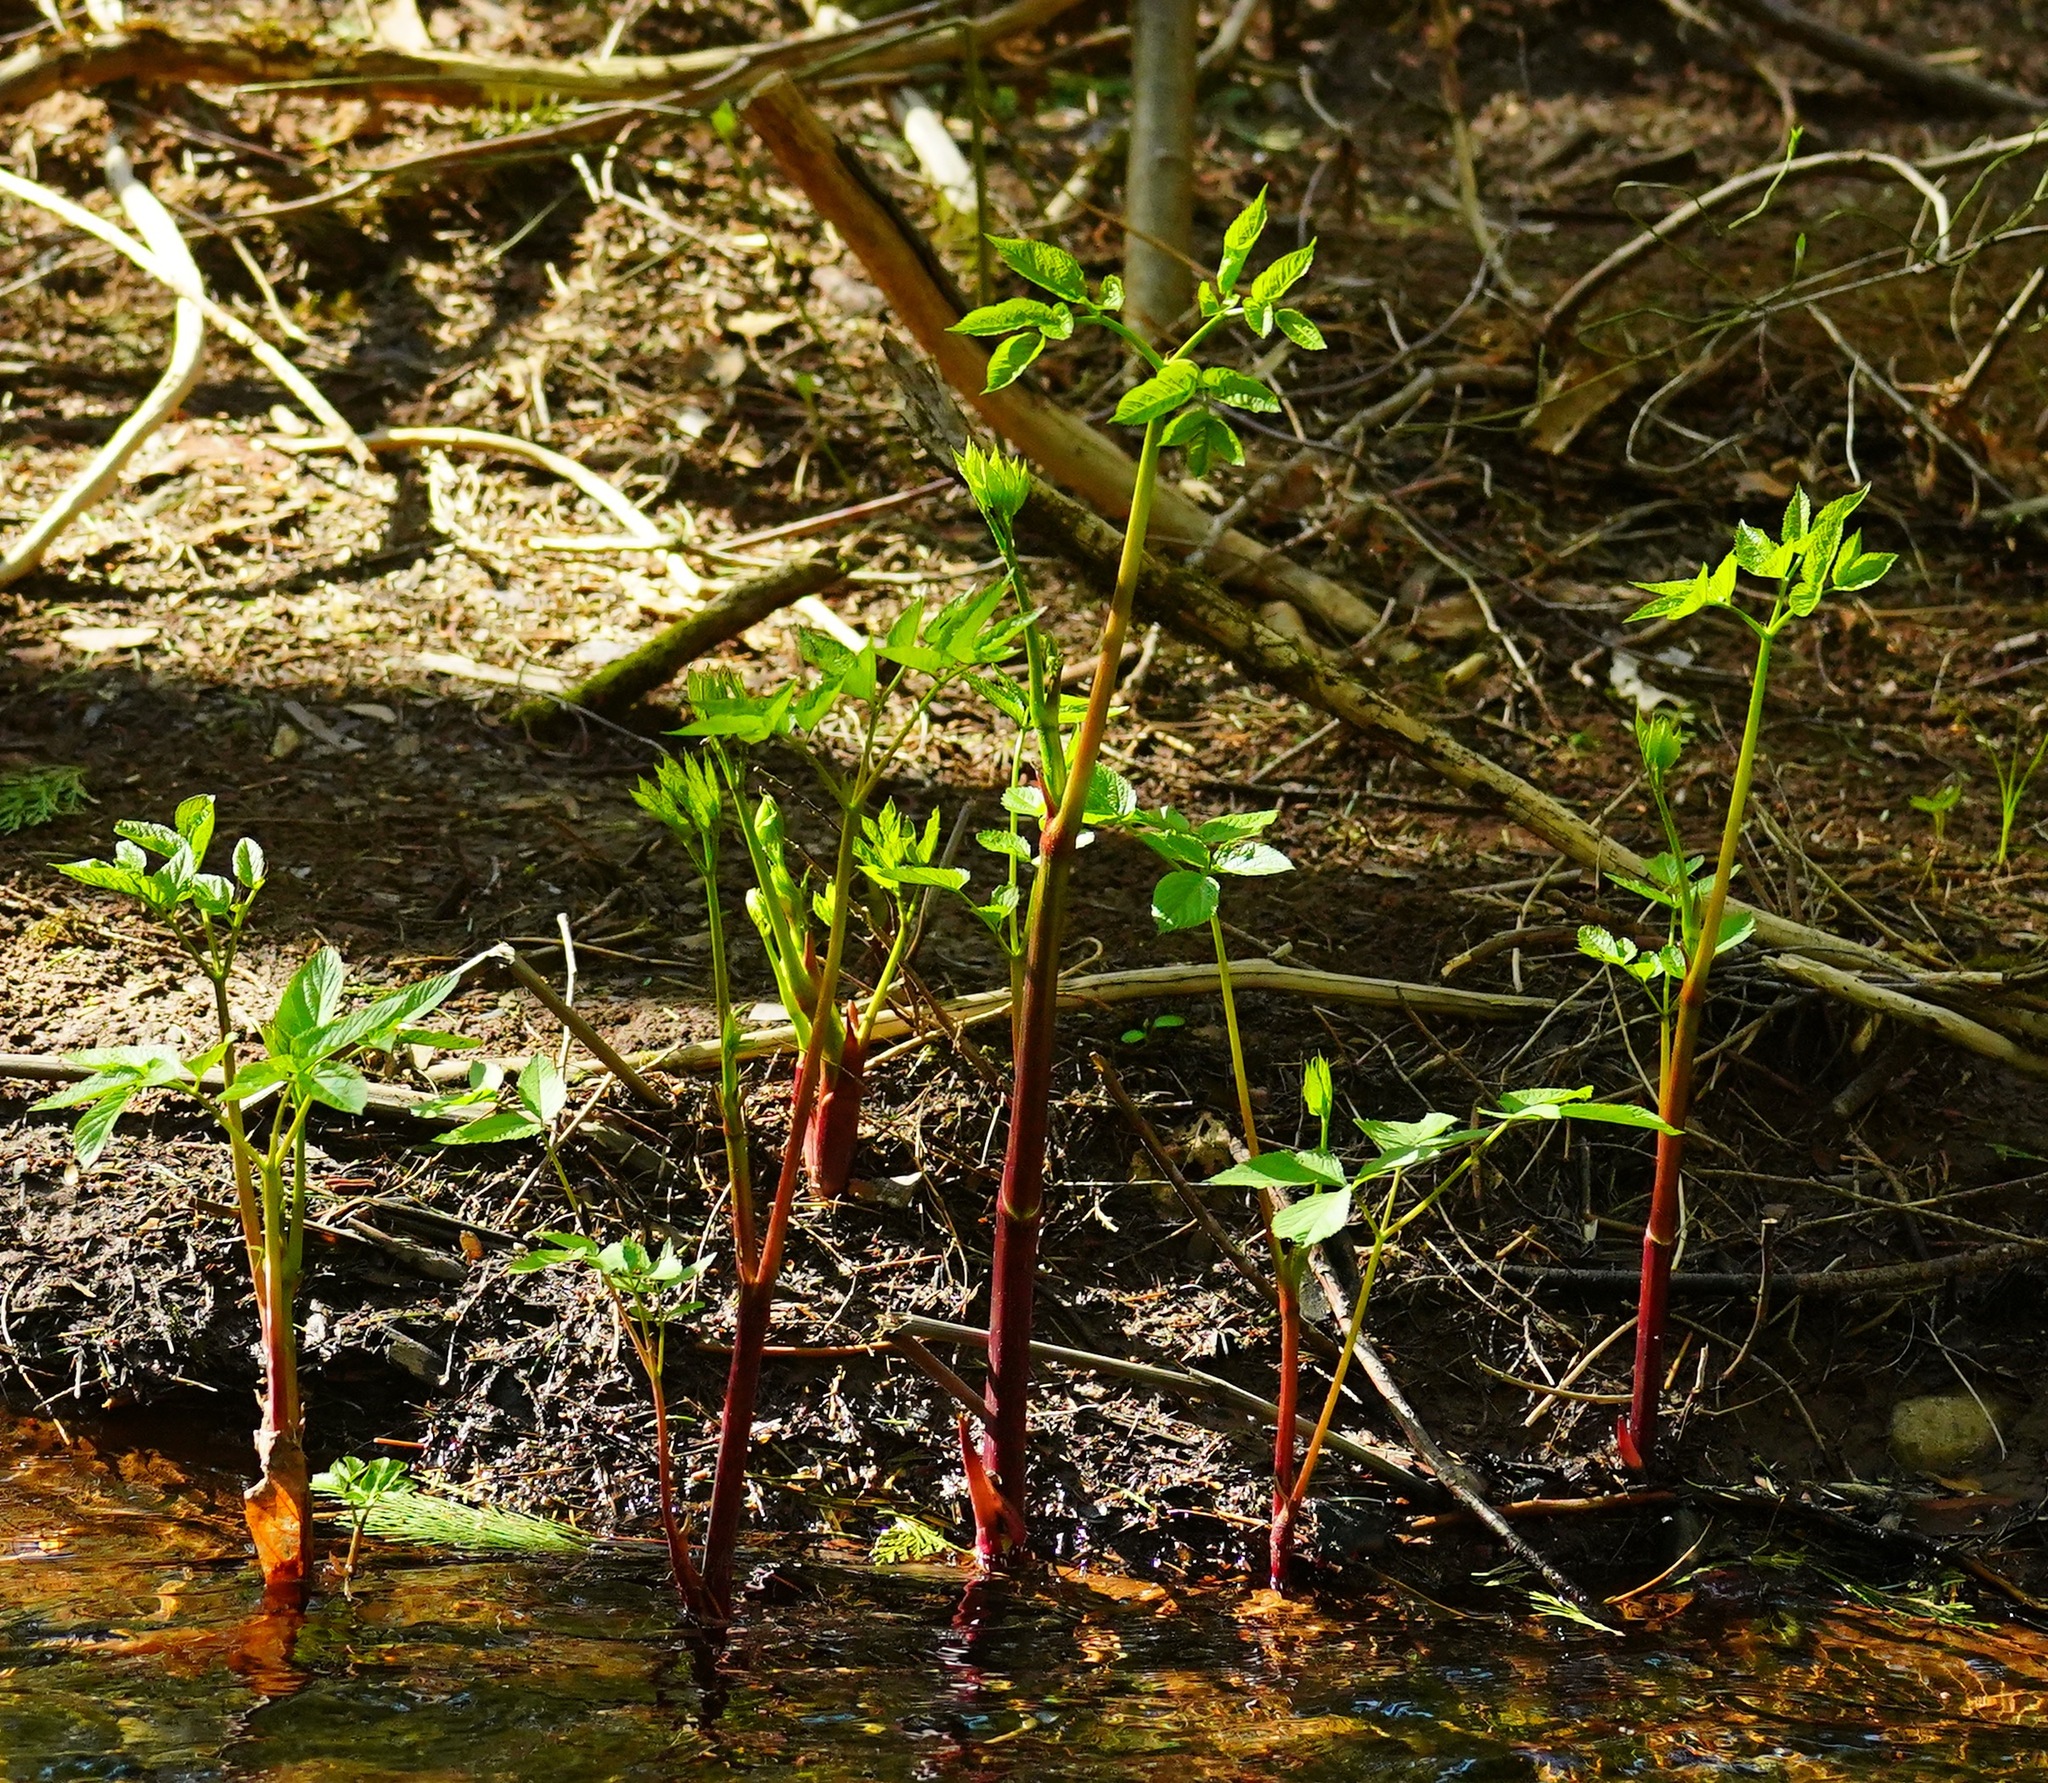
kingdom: Plantae
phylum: Tracheophyta
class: Magnoliopsida
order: Apiales
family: Araliaceae
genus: Aralia
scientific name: Aralia californica
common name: California-ginseng
